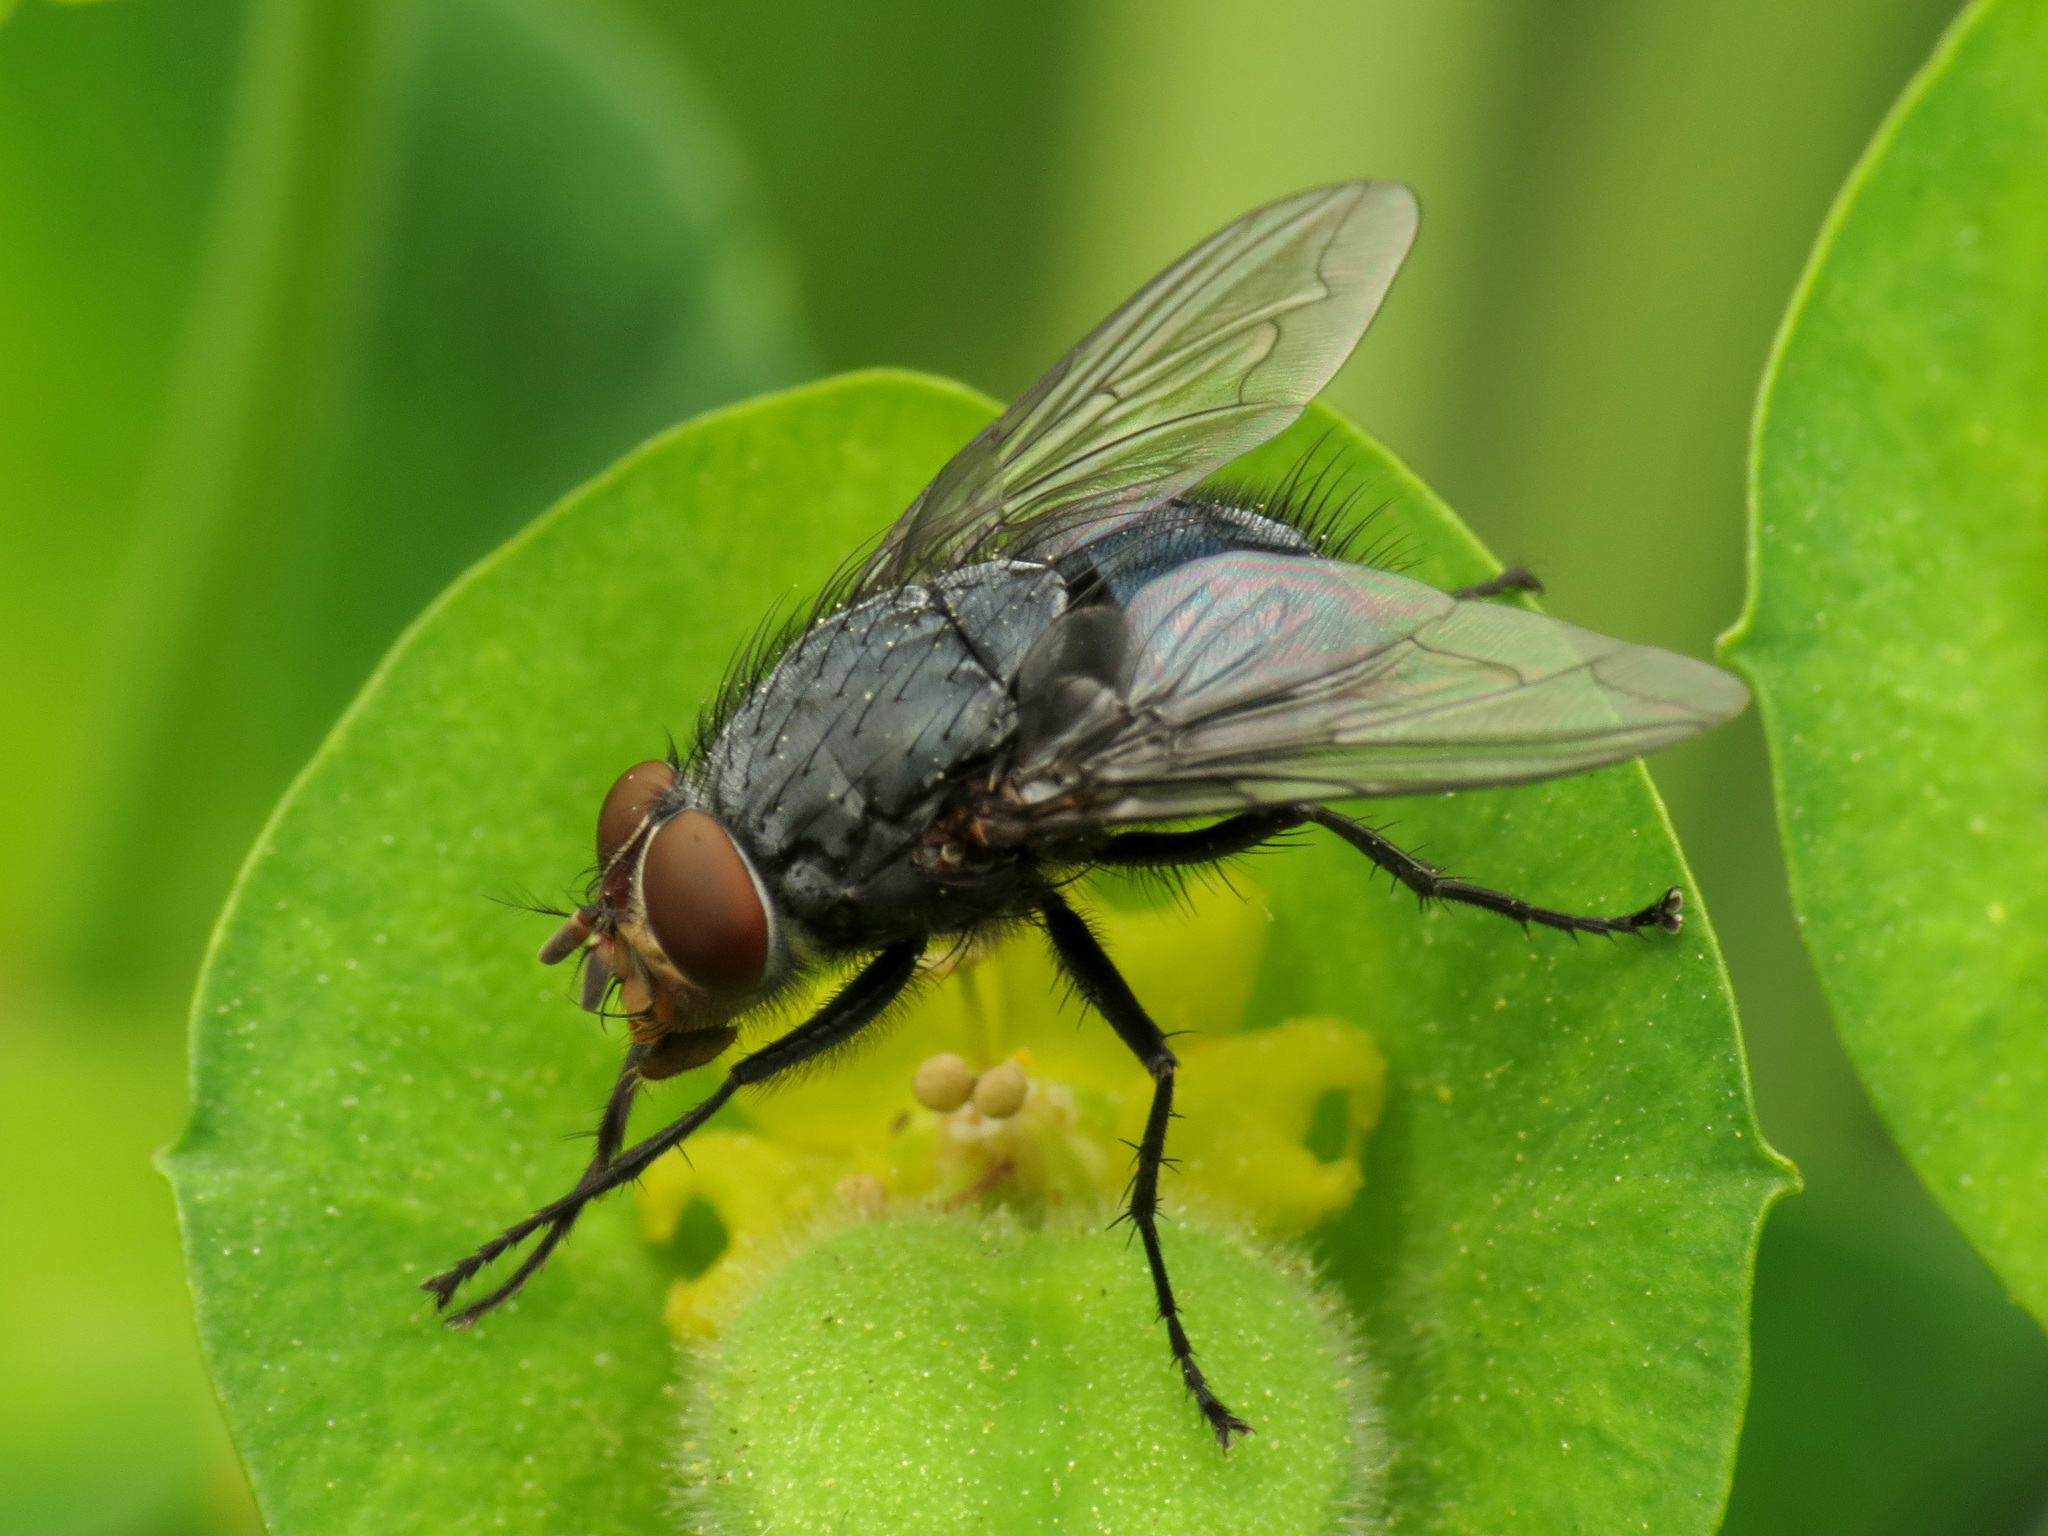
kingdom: Animalia
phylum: Arthropoda
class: Insecta
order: Diptera
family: Calliphoridae
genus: Calliphora
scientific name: Calliphora vicina
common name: Common blow flie
